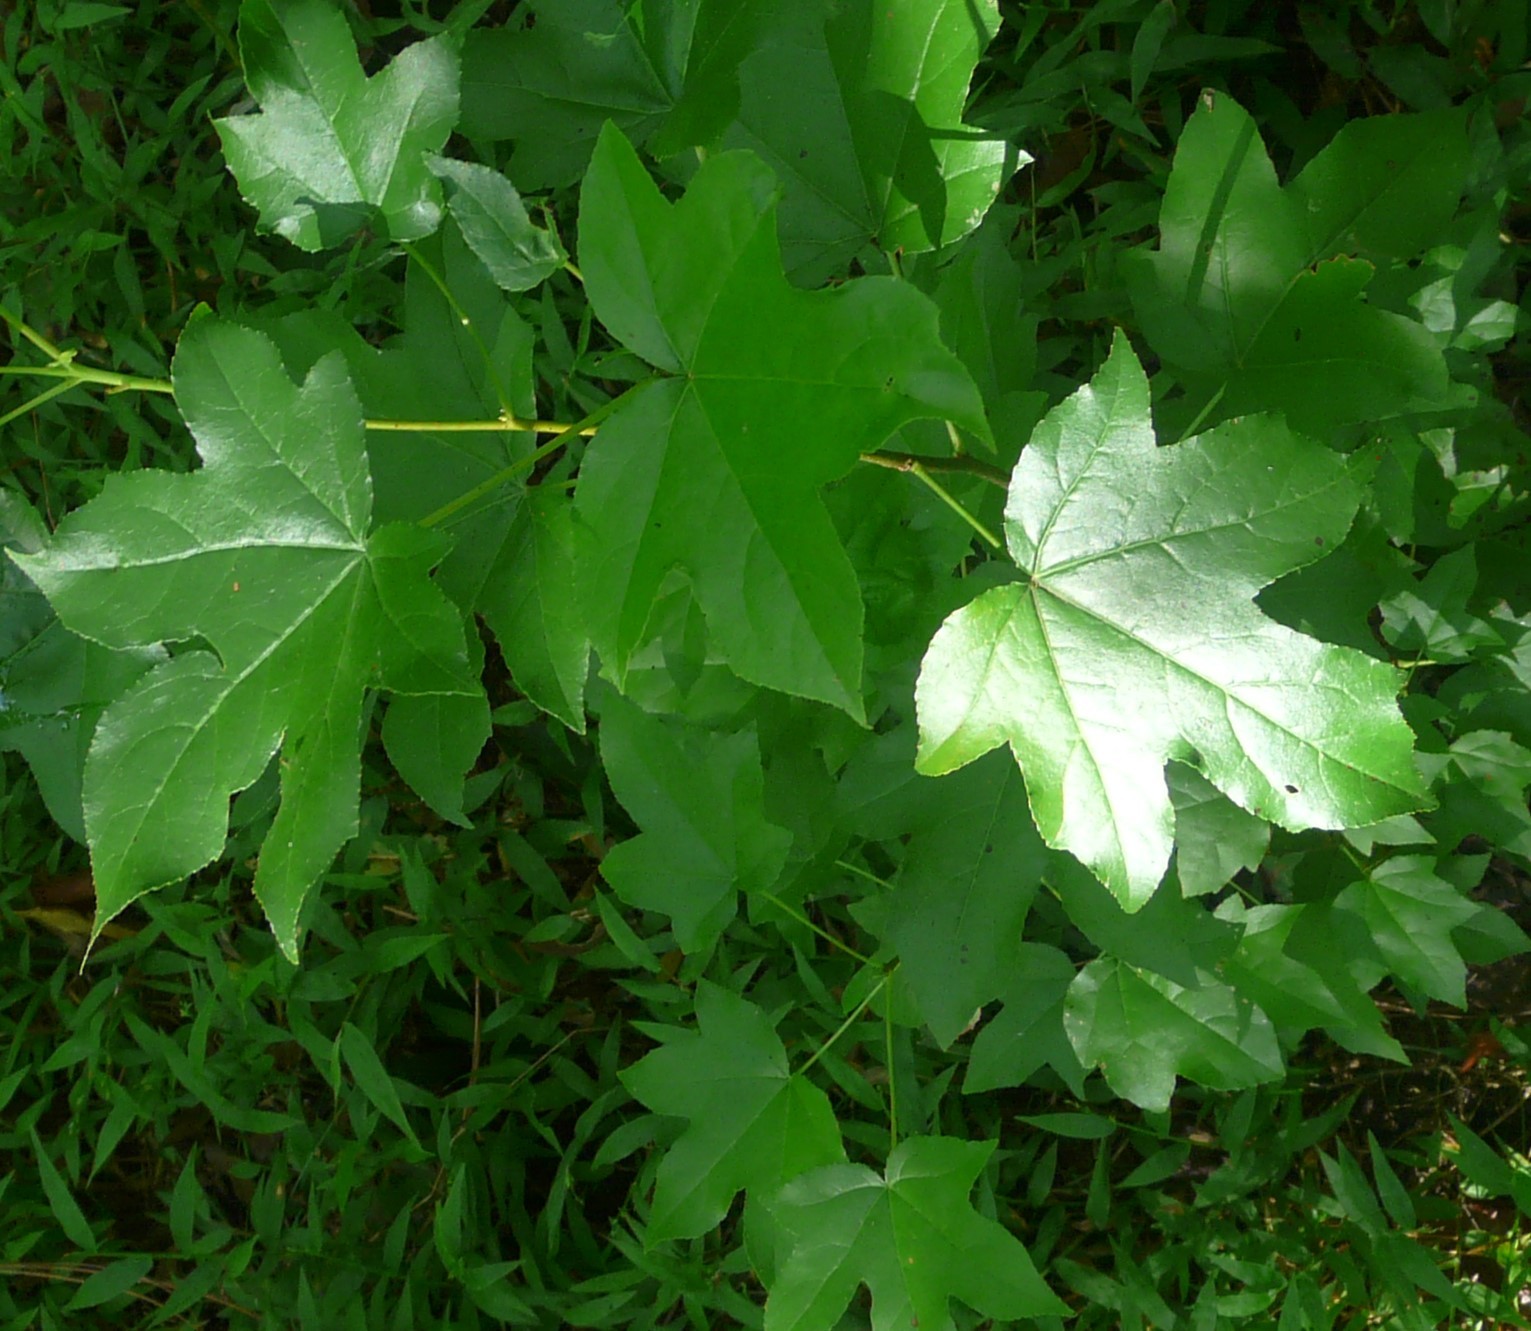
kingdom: Plantae
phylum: Tracheophyta
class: Magnoliopsida
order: Saxifragales
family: Altingiaceae
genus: Liquidambar
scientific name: Liquidambar styraciflua
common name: Sweet gum
